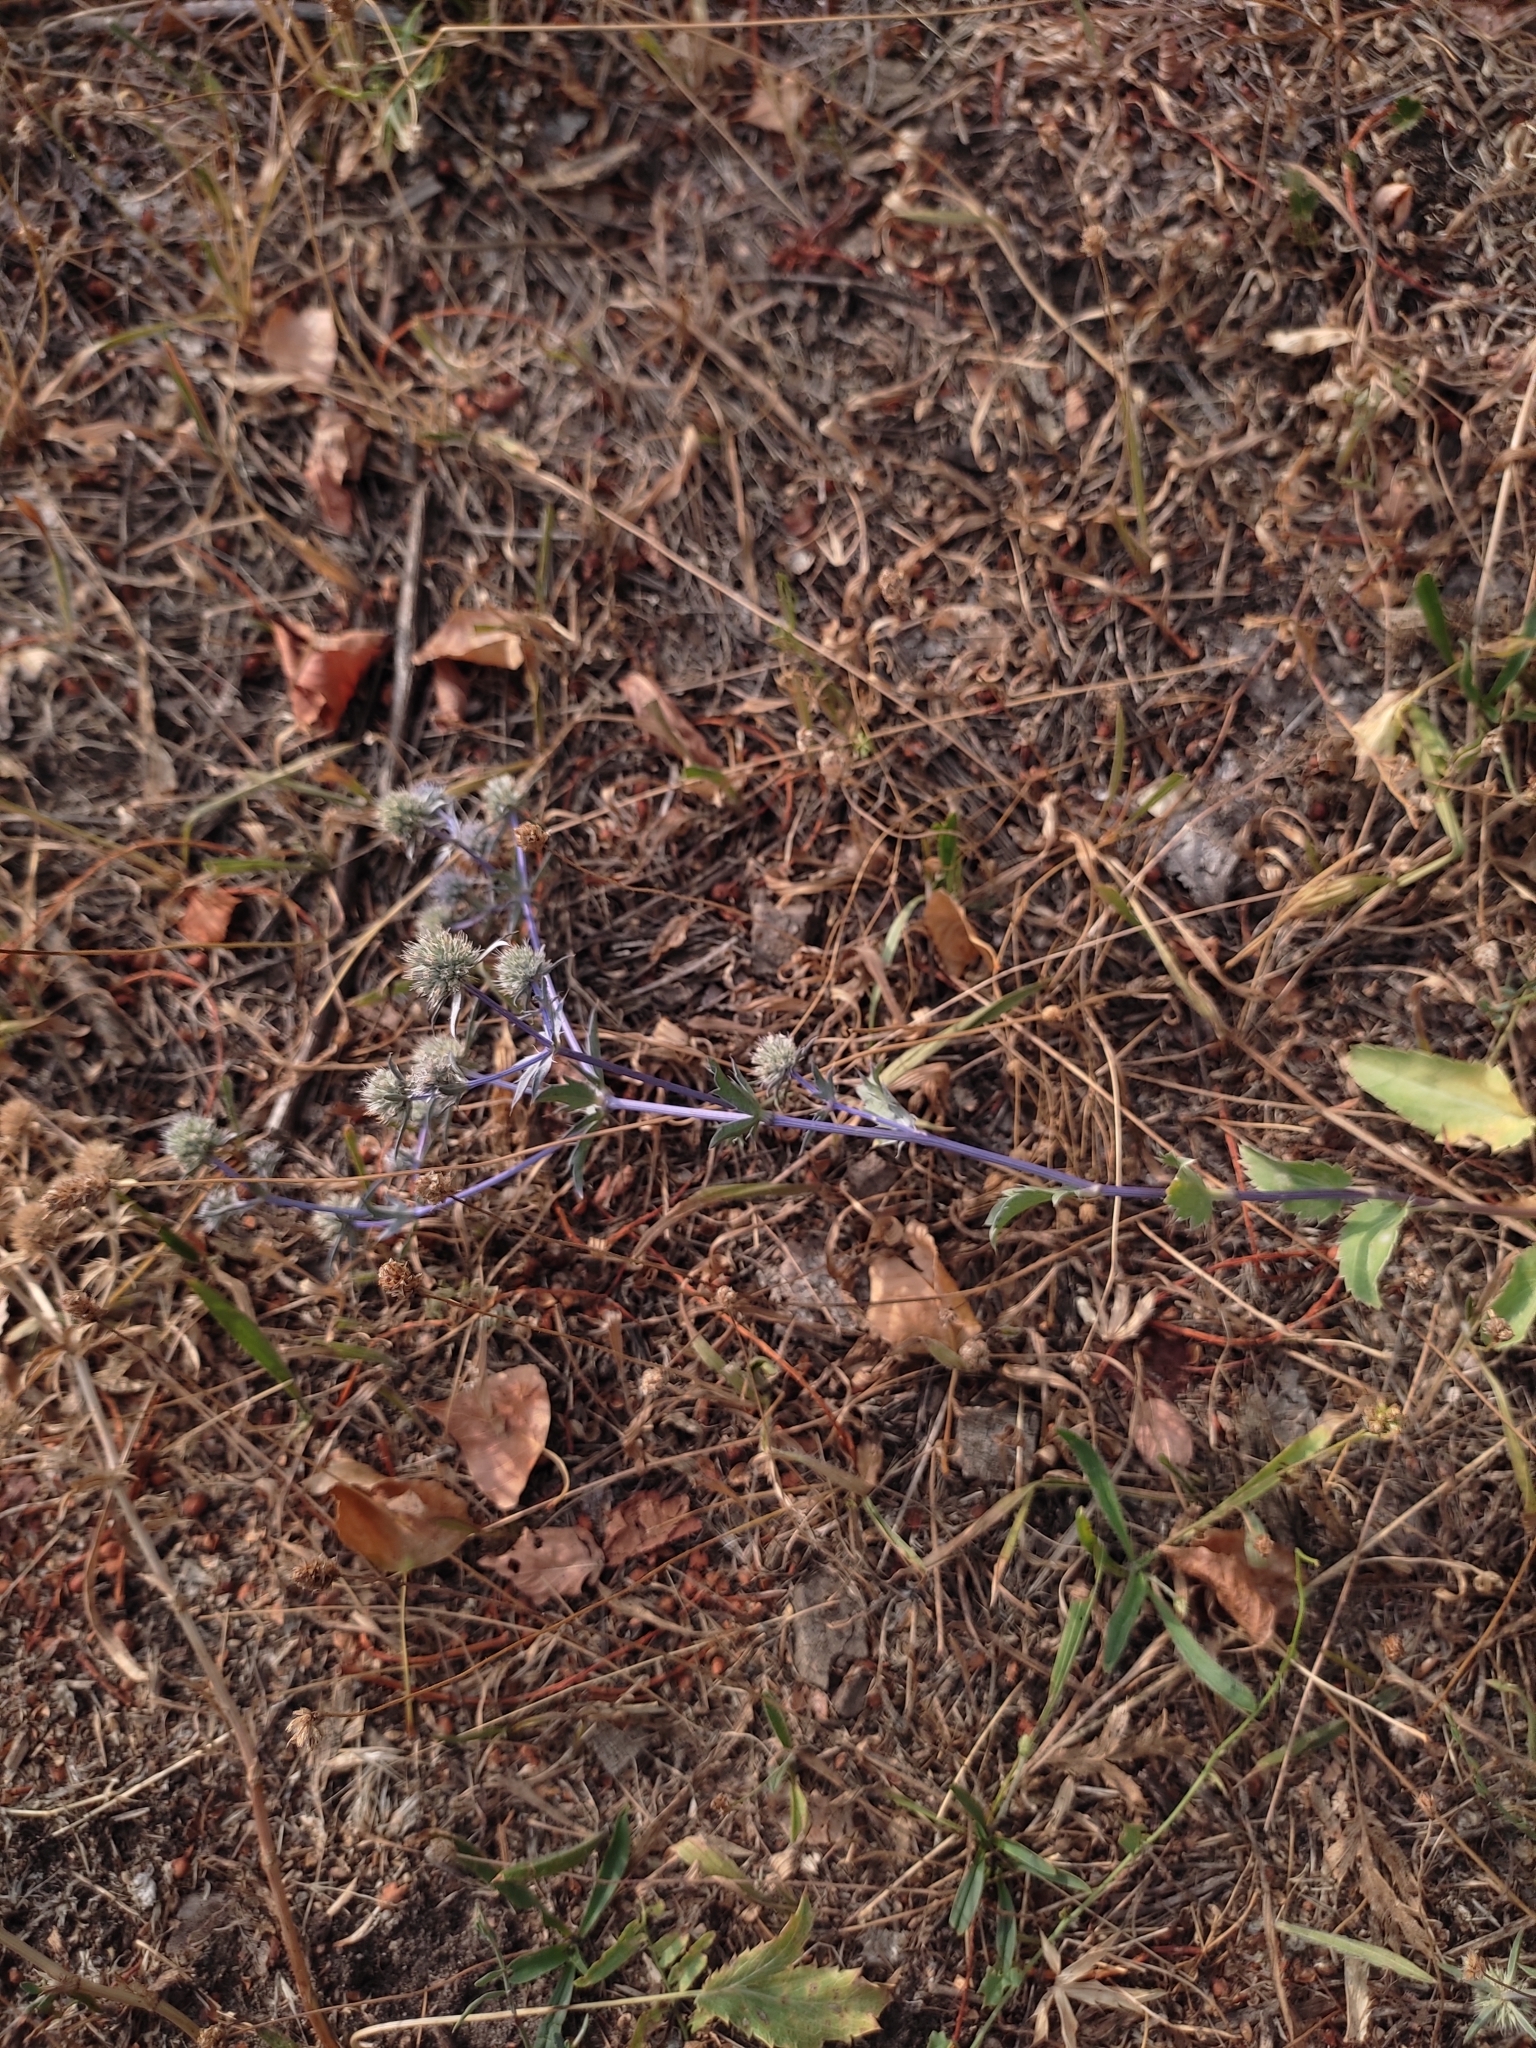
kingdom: Plantae
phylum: Tracheophyta
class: Magnoliopsida
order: Apiales
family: Apiaceae
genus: Eryngium
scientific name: Eryngium planum
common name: Blue eryngo
